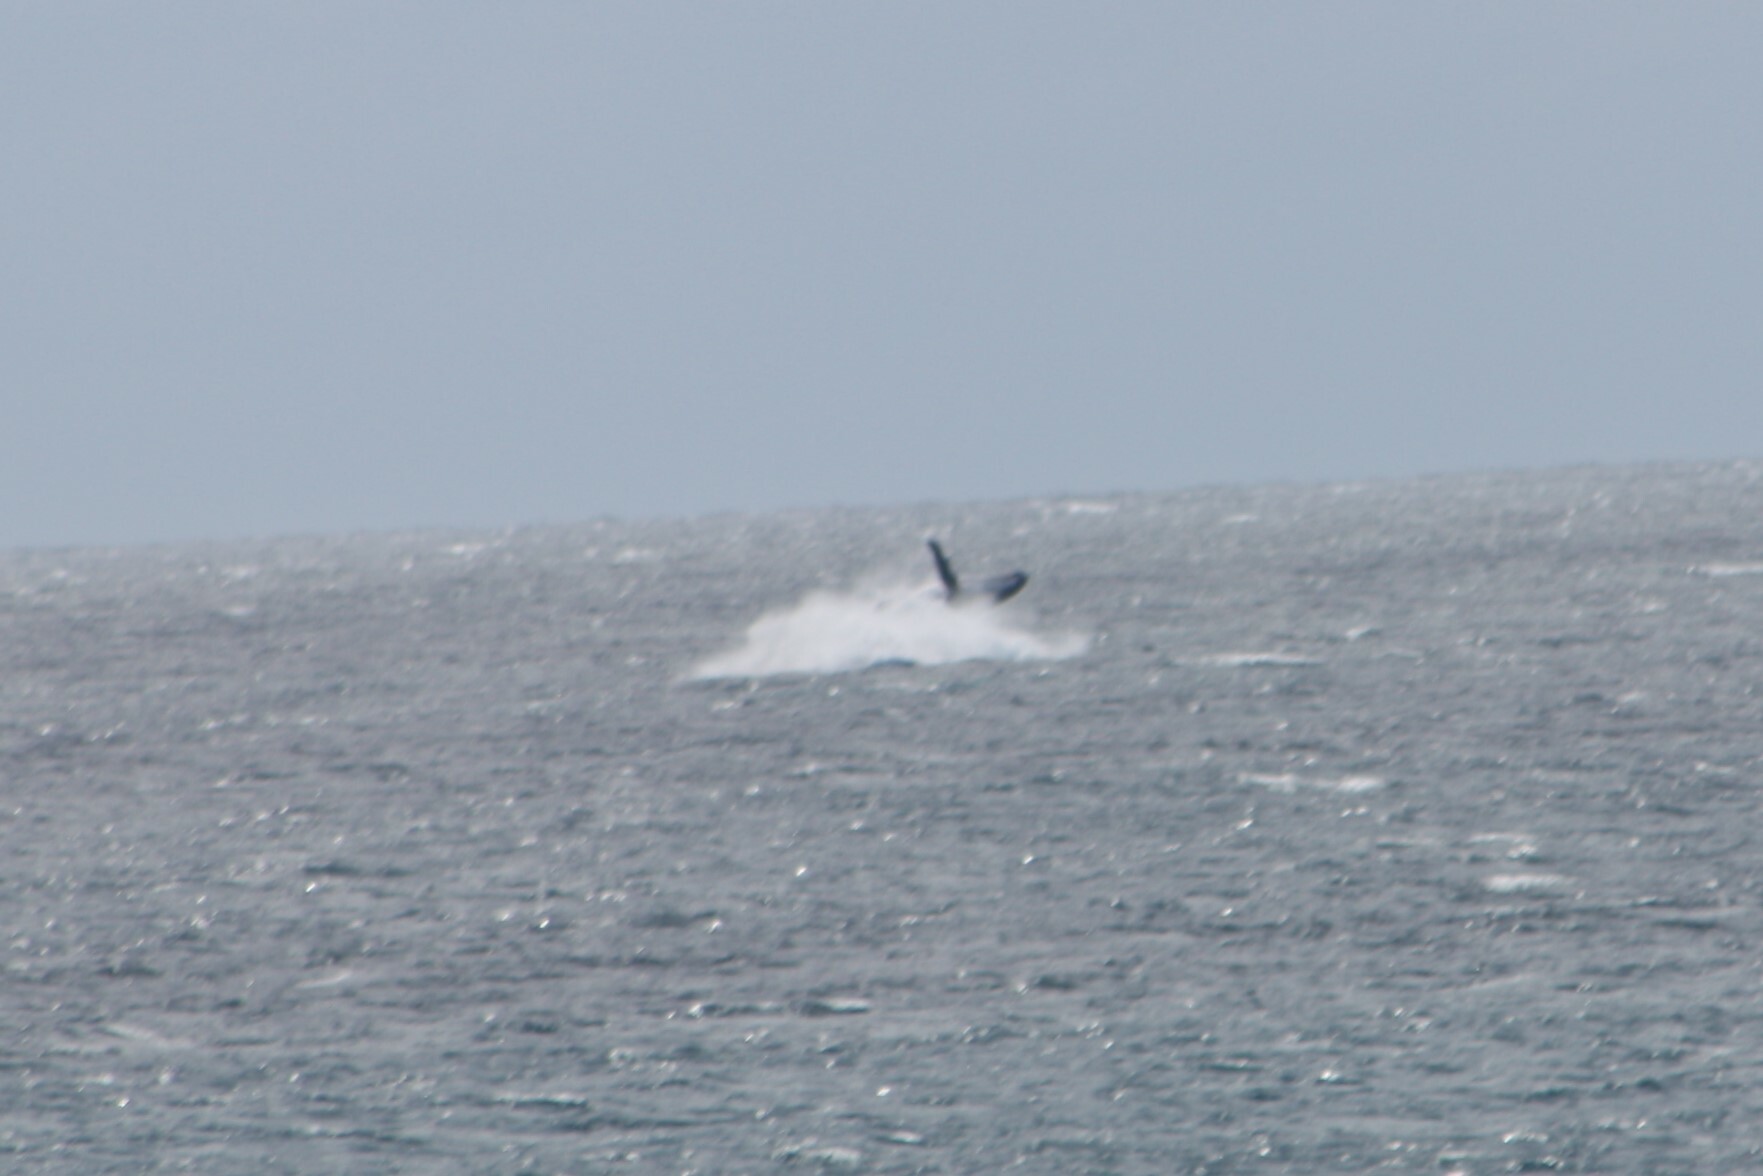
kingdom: Animalia
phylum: Chordata
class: Mammalia
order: Cetacea
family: Balaenopteridae
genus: Megaptera
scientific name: Megaptera novaeangliae
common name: Humpback whale
